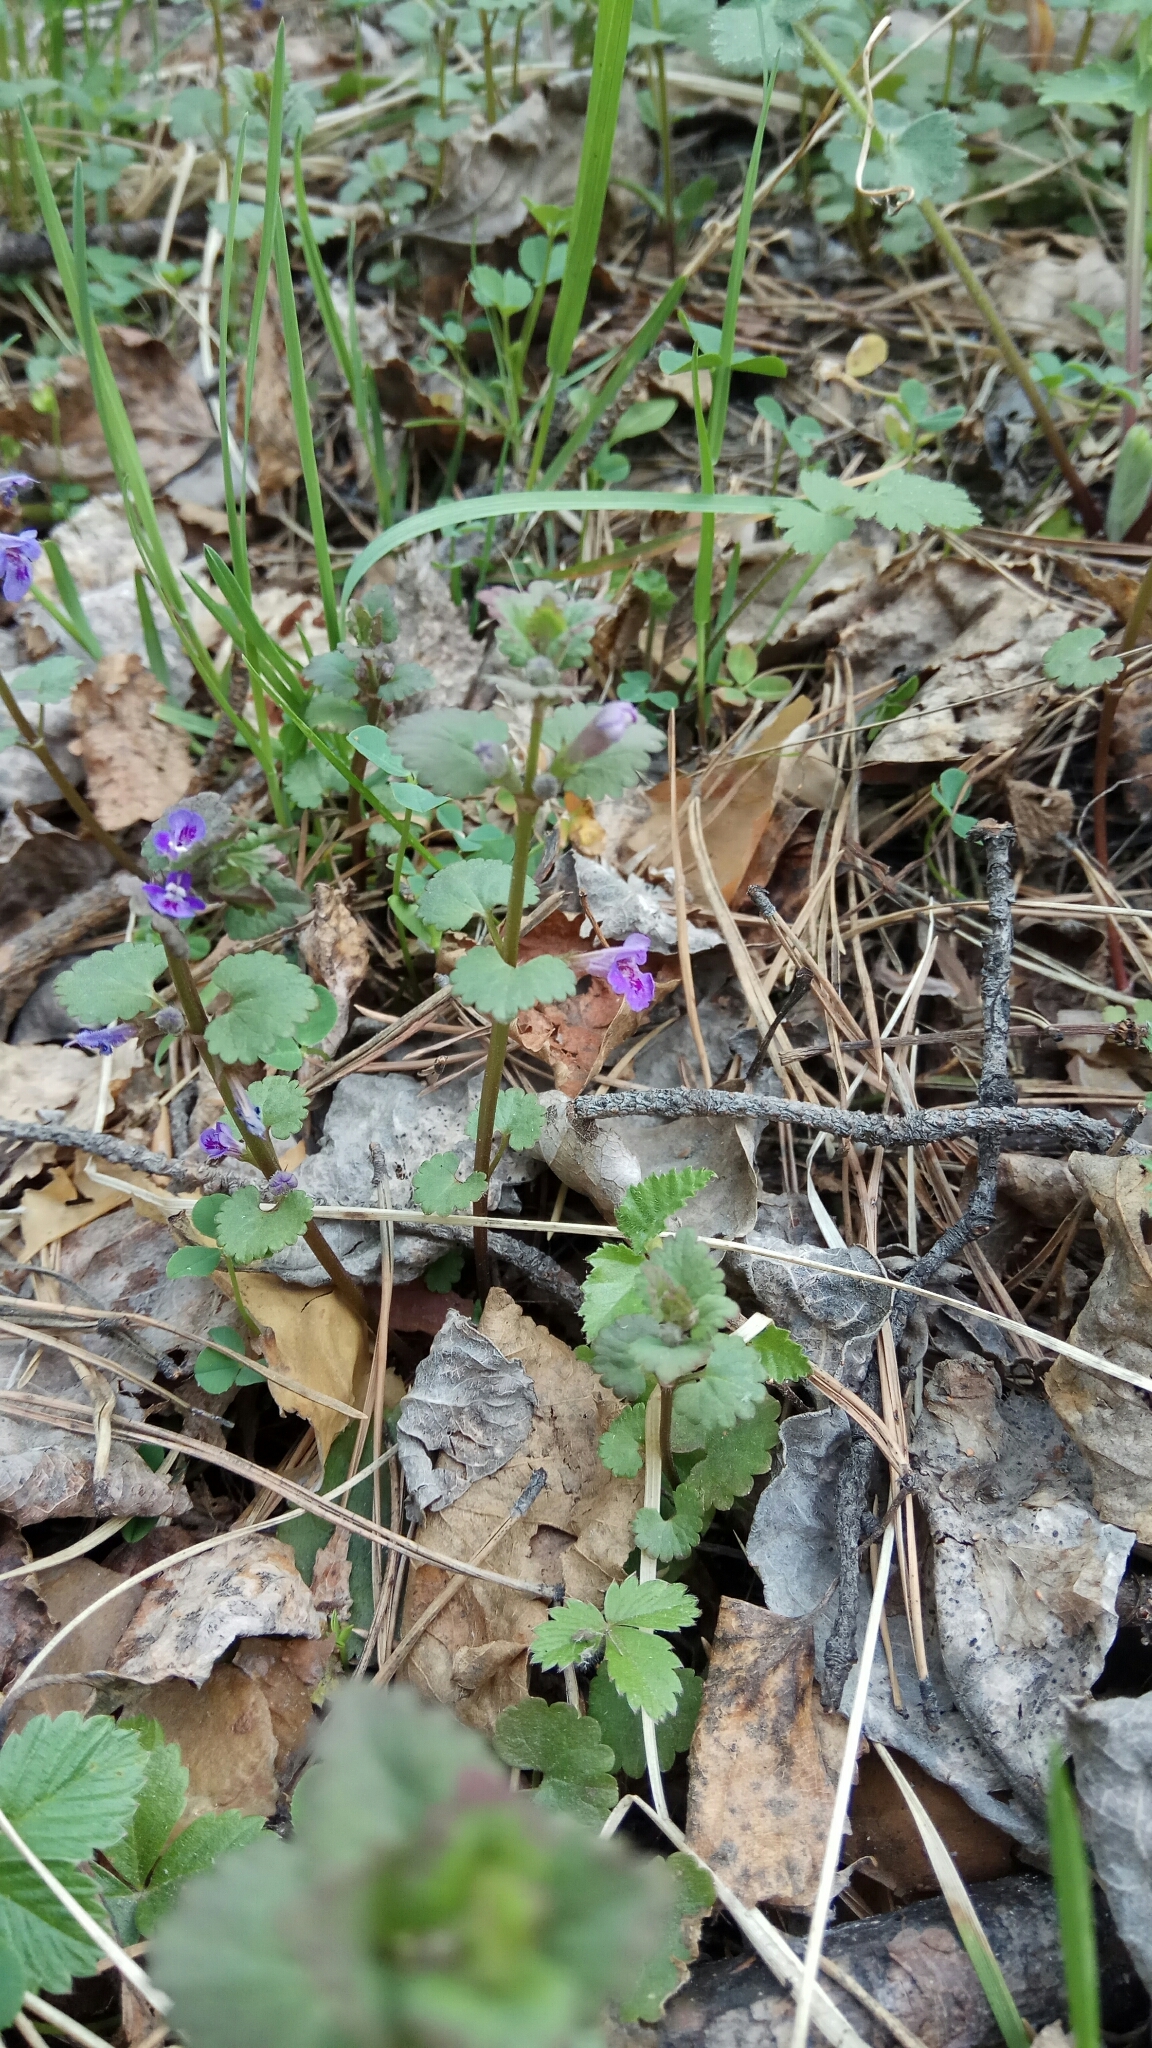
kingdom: Plantae
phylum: Tracheophyta
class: Magnoliopsida
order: Lamiales
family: Lamiaceae
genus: Glechoma
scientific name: Glechoma hederacea
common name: Ground ivy
